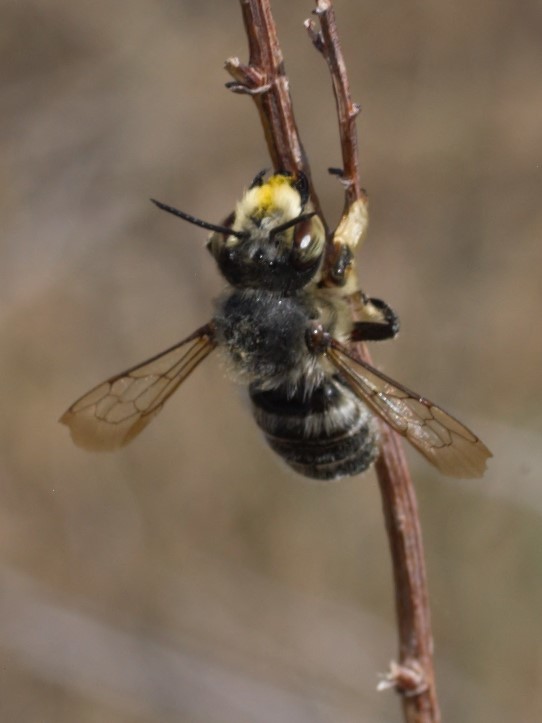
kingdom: Animalia
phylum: Arthropoda
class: Insecta
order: Hymenoptera
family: Megachilidae
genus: Megachile
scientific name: Megachile frigida
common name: Frigid leafcutter
